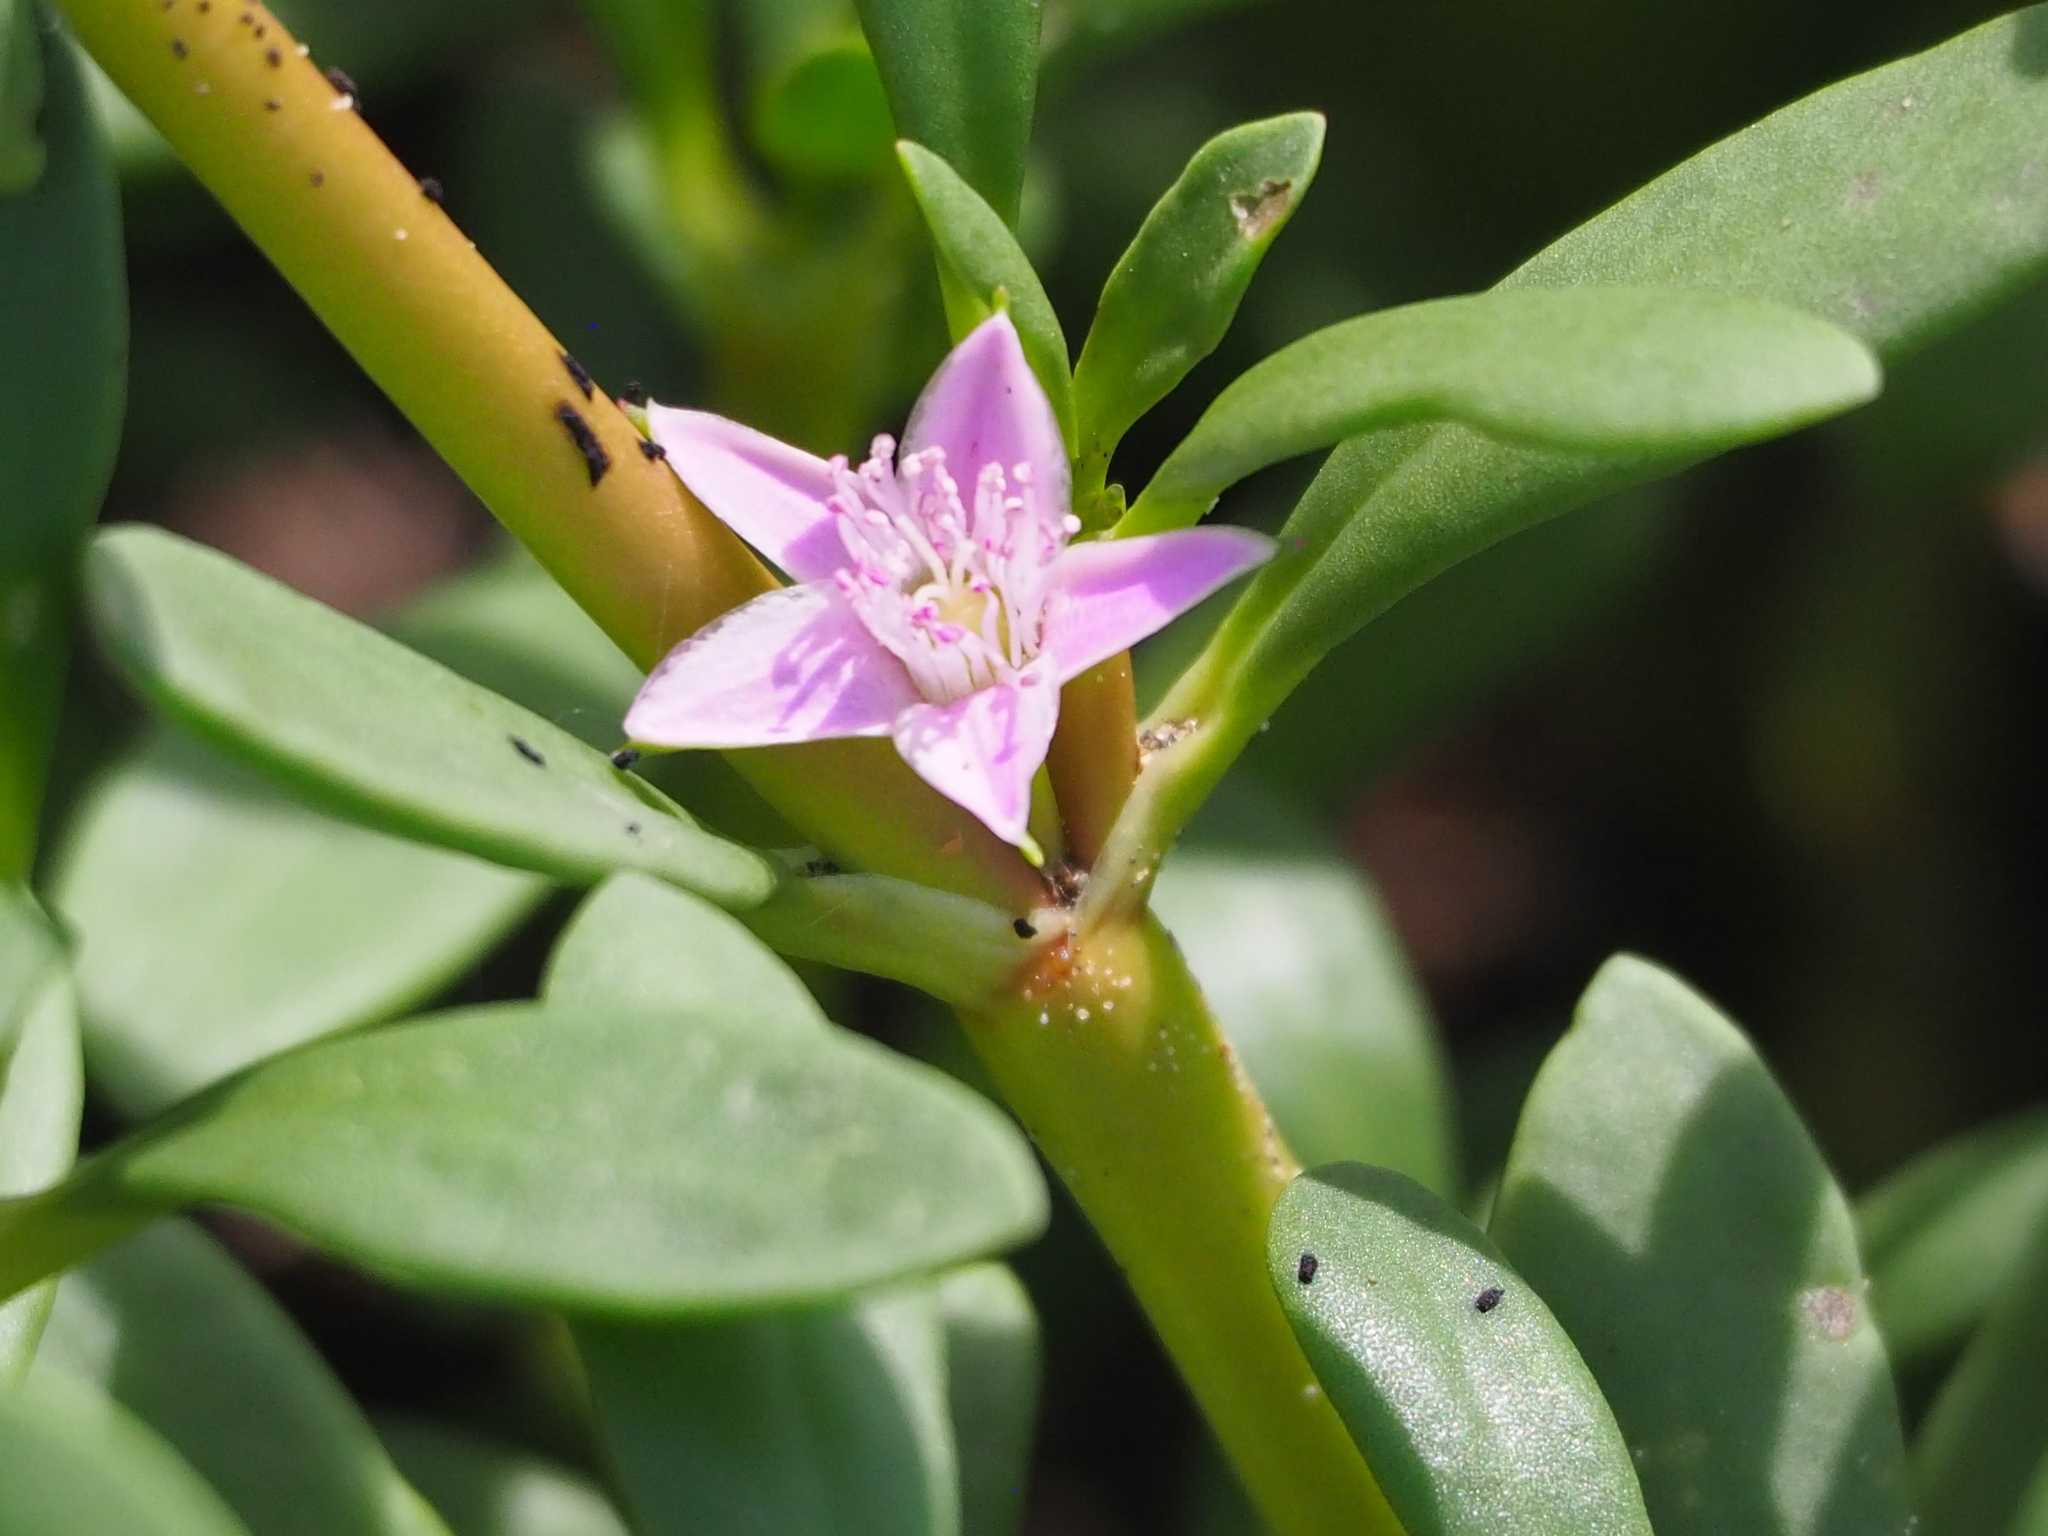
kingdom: Plantae
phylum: Tracheophyta
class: Magnoliopsida
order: Caryophyllales
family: Aizoaceae
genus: Sesuvium
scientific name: Sesuvium portulacastrum
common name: Sea-purslane
